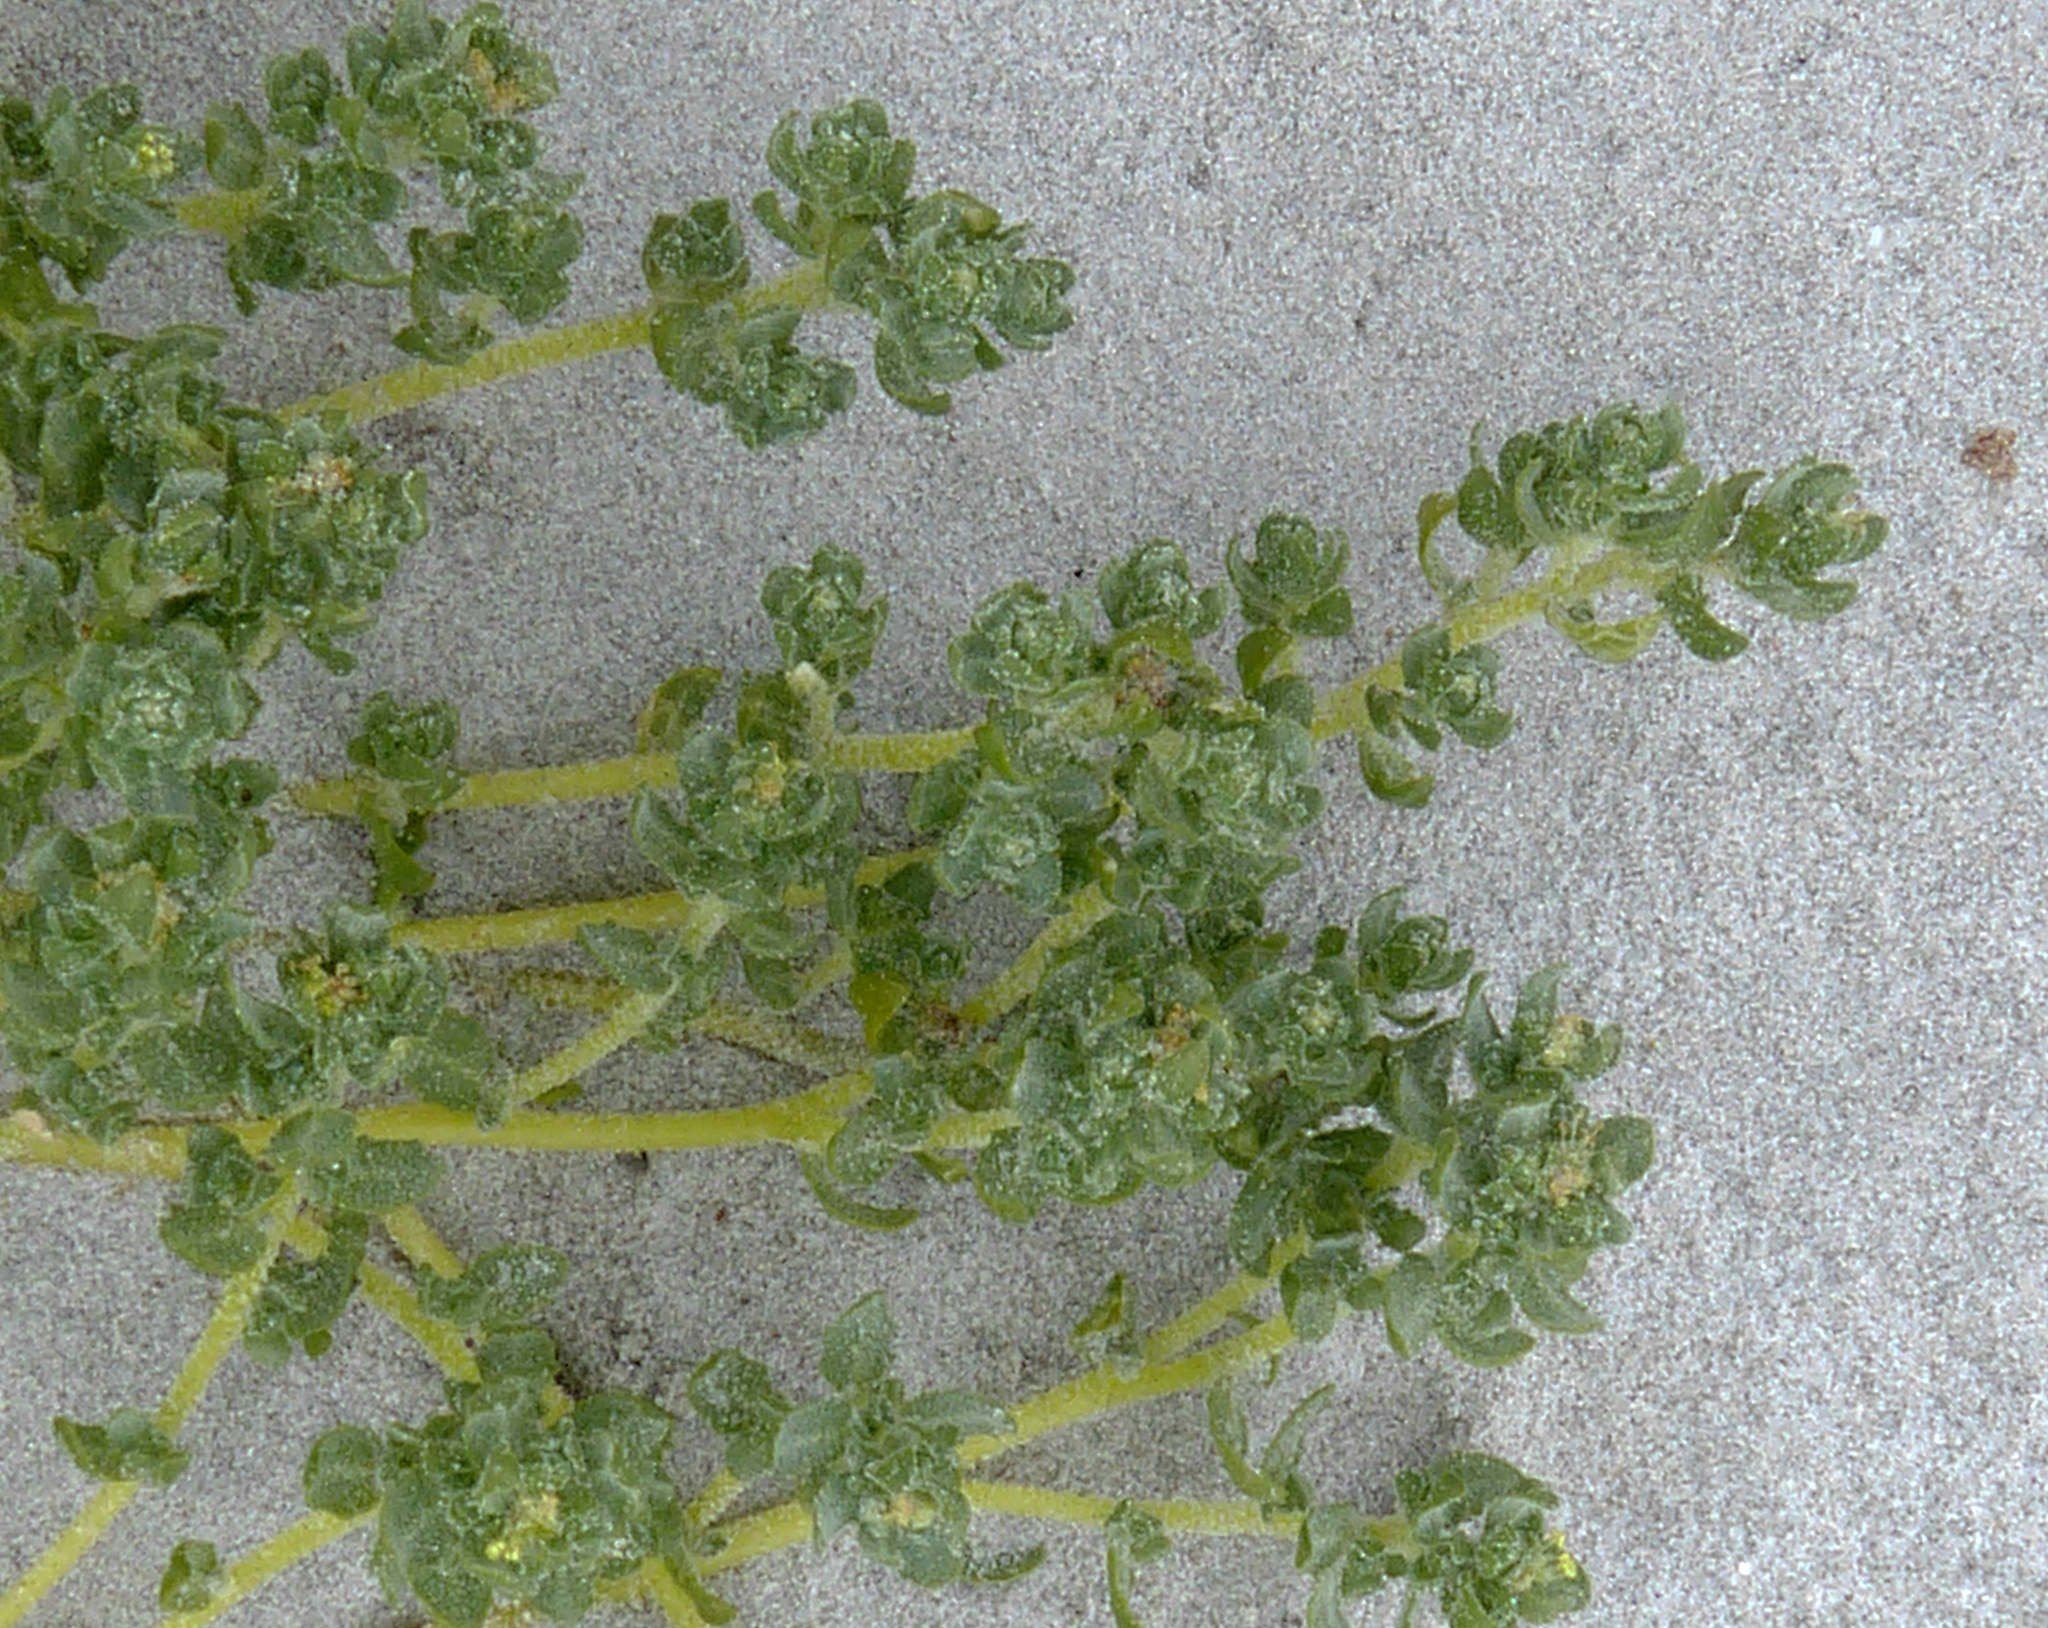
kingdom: Plantae
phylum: Tracheophyta
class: Magnoliopsida
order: Caryophyllales
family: Amaranthaceae
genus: Atriplex
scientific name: Atriplex billardierei
